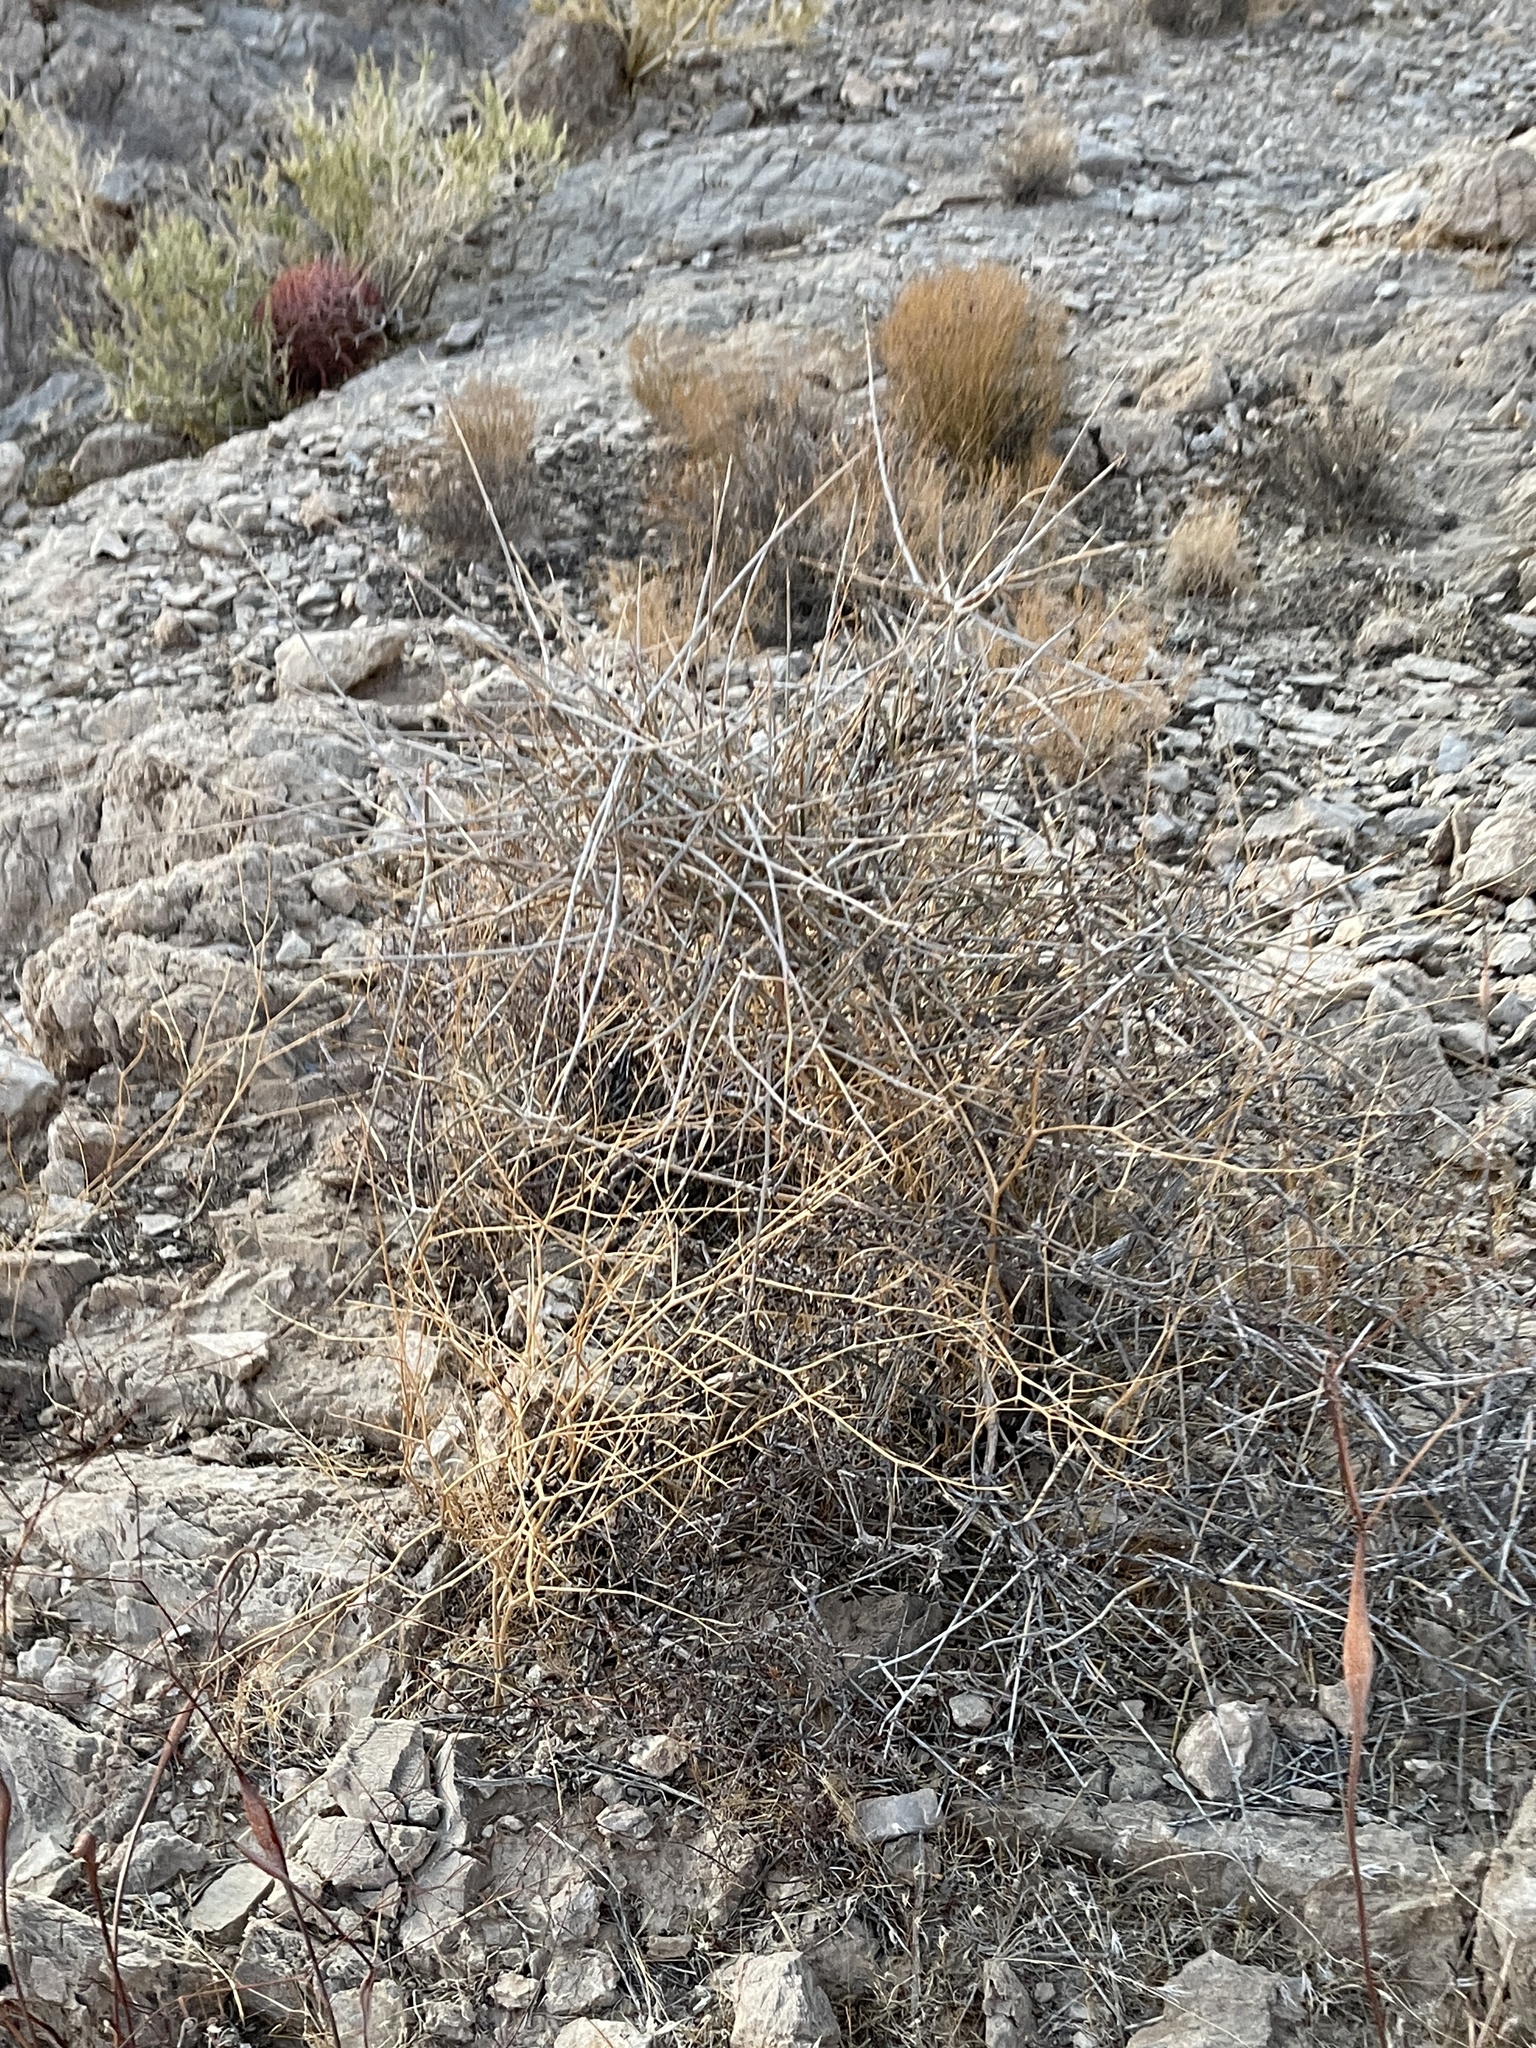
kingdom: Plantae
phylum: Tracheophyta
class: Gnetopsida
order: Ephedrales
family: Ephedraceae
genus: Ephedra
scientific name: Ephedra nevadensis
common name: Gray ephedra
